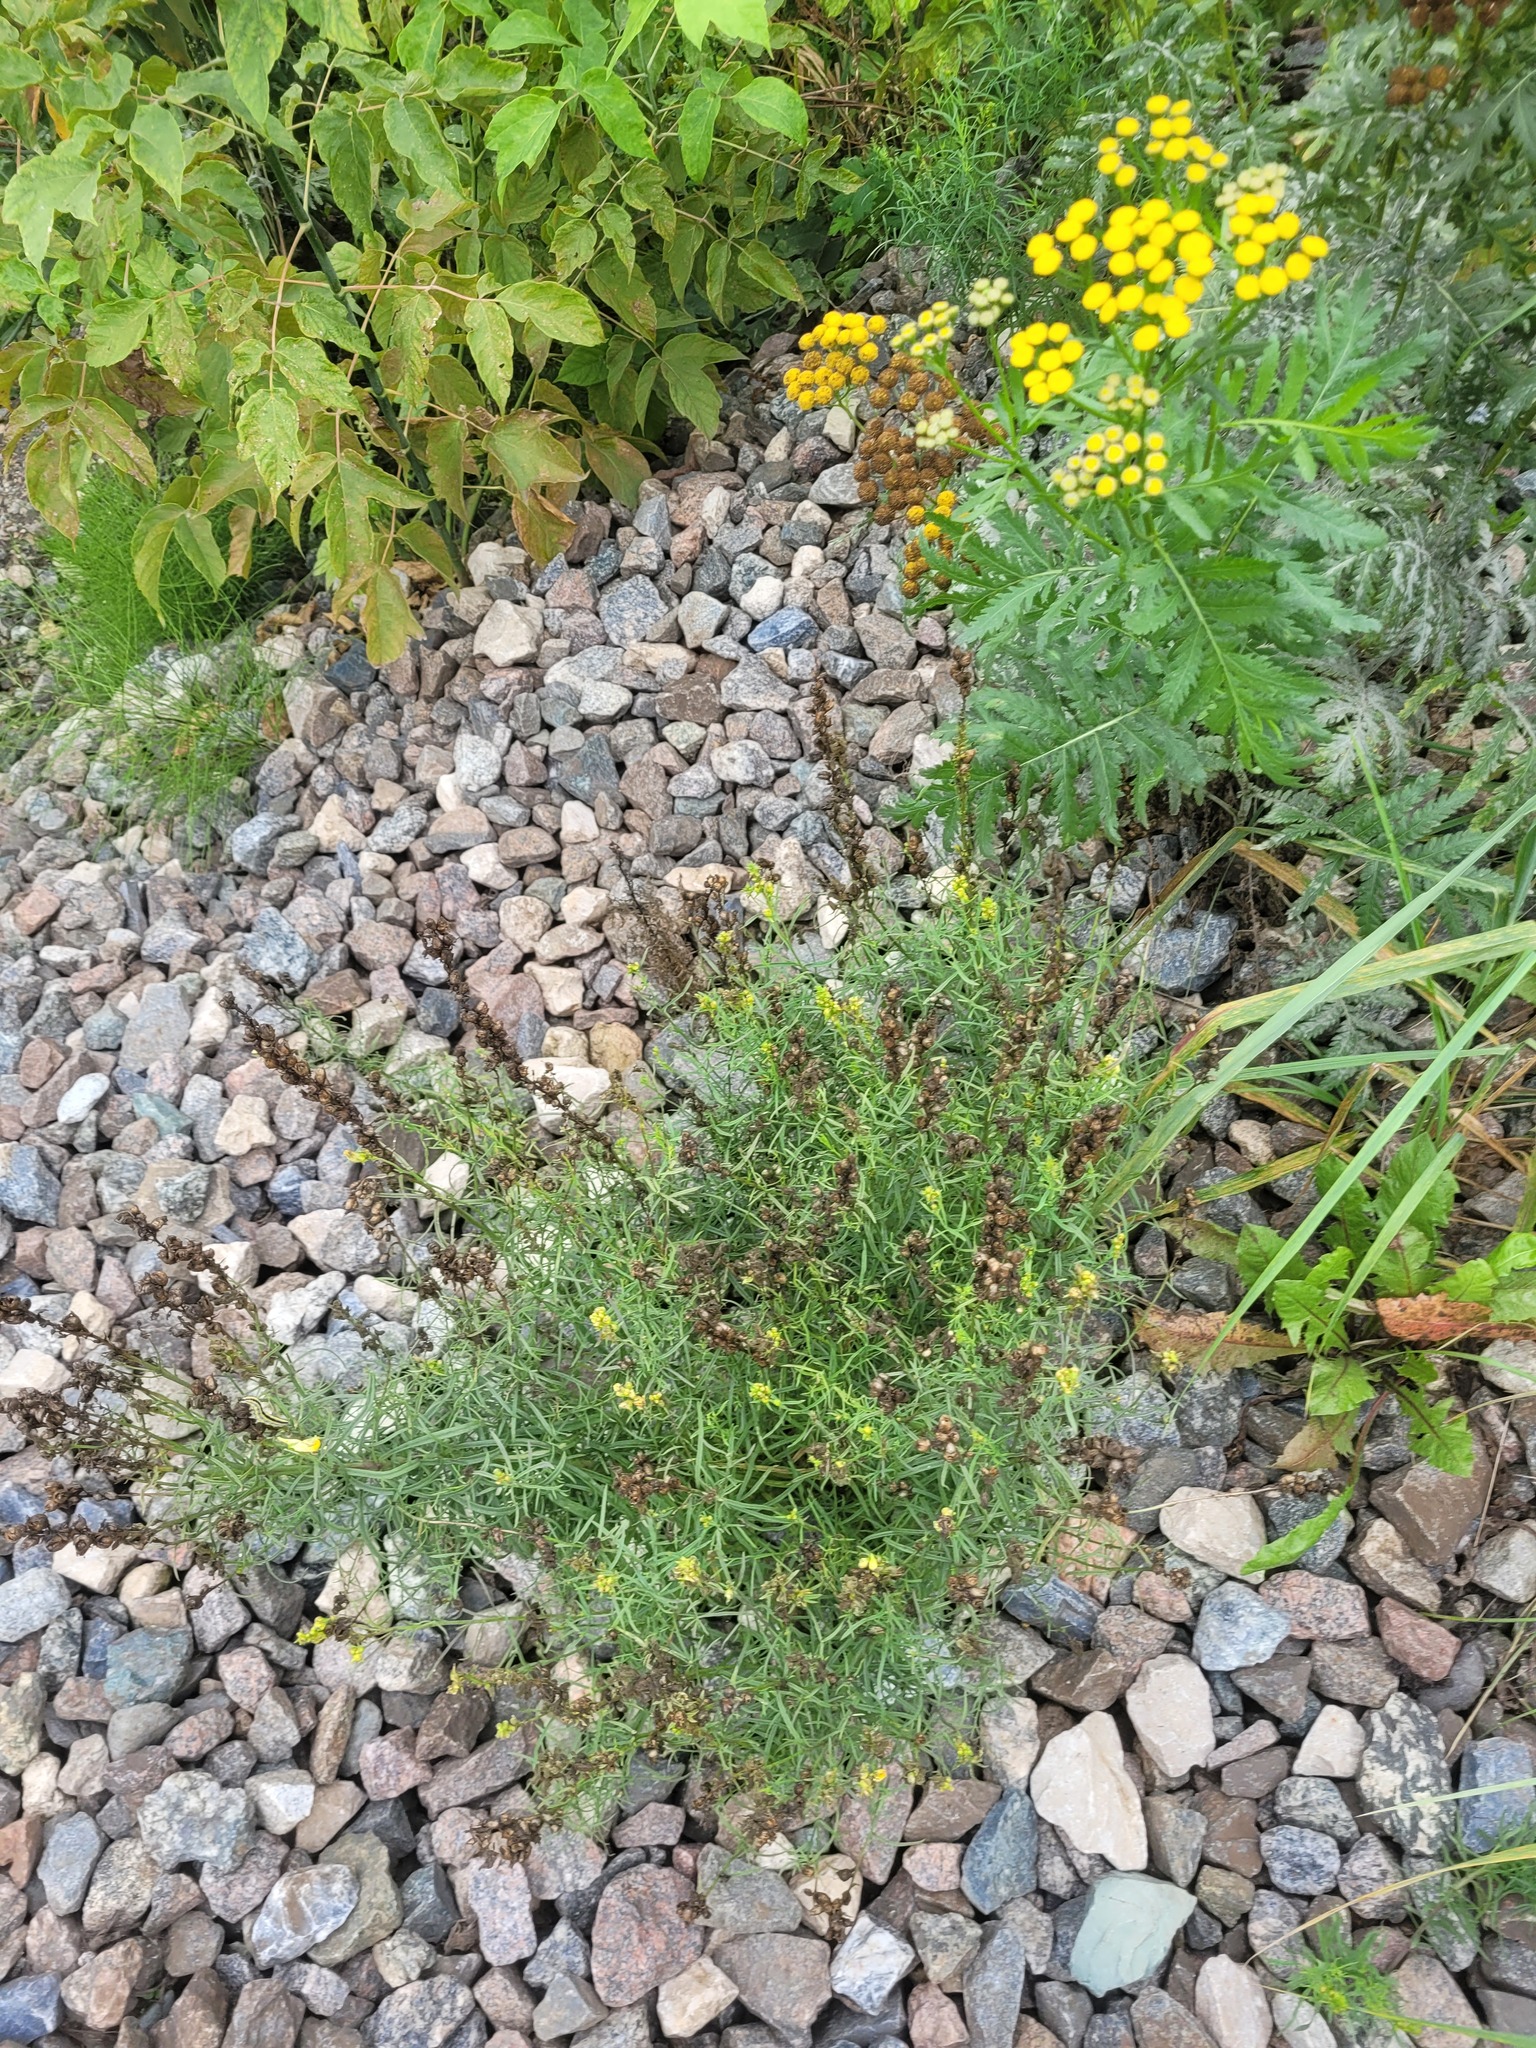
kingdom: Plantae
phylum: Tracheophyta
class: Magnoliopsida
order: Lamiales
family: Plantaginaceae
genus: Linaria
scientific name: Linaria vulgaris
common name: Butter and eggs
